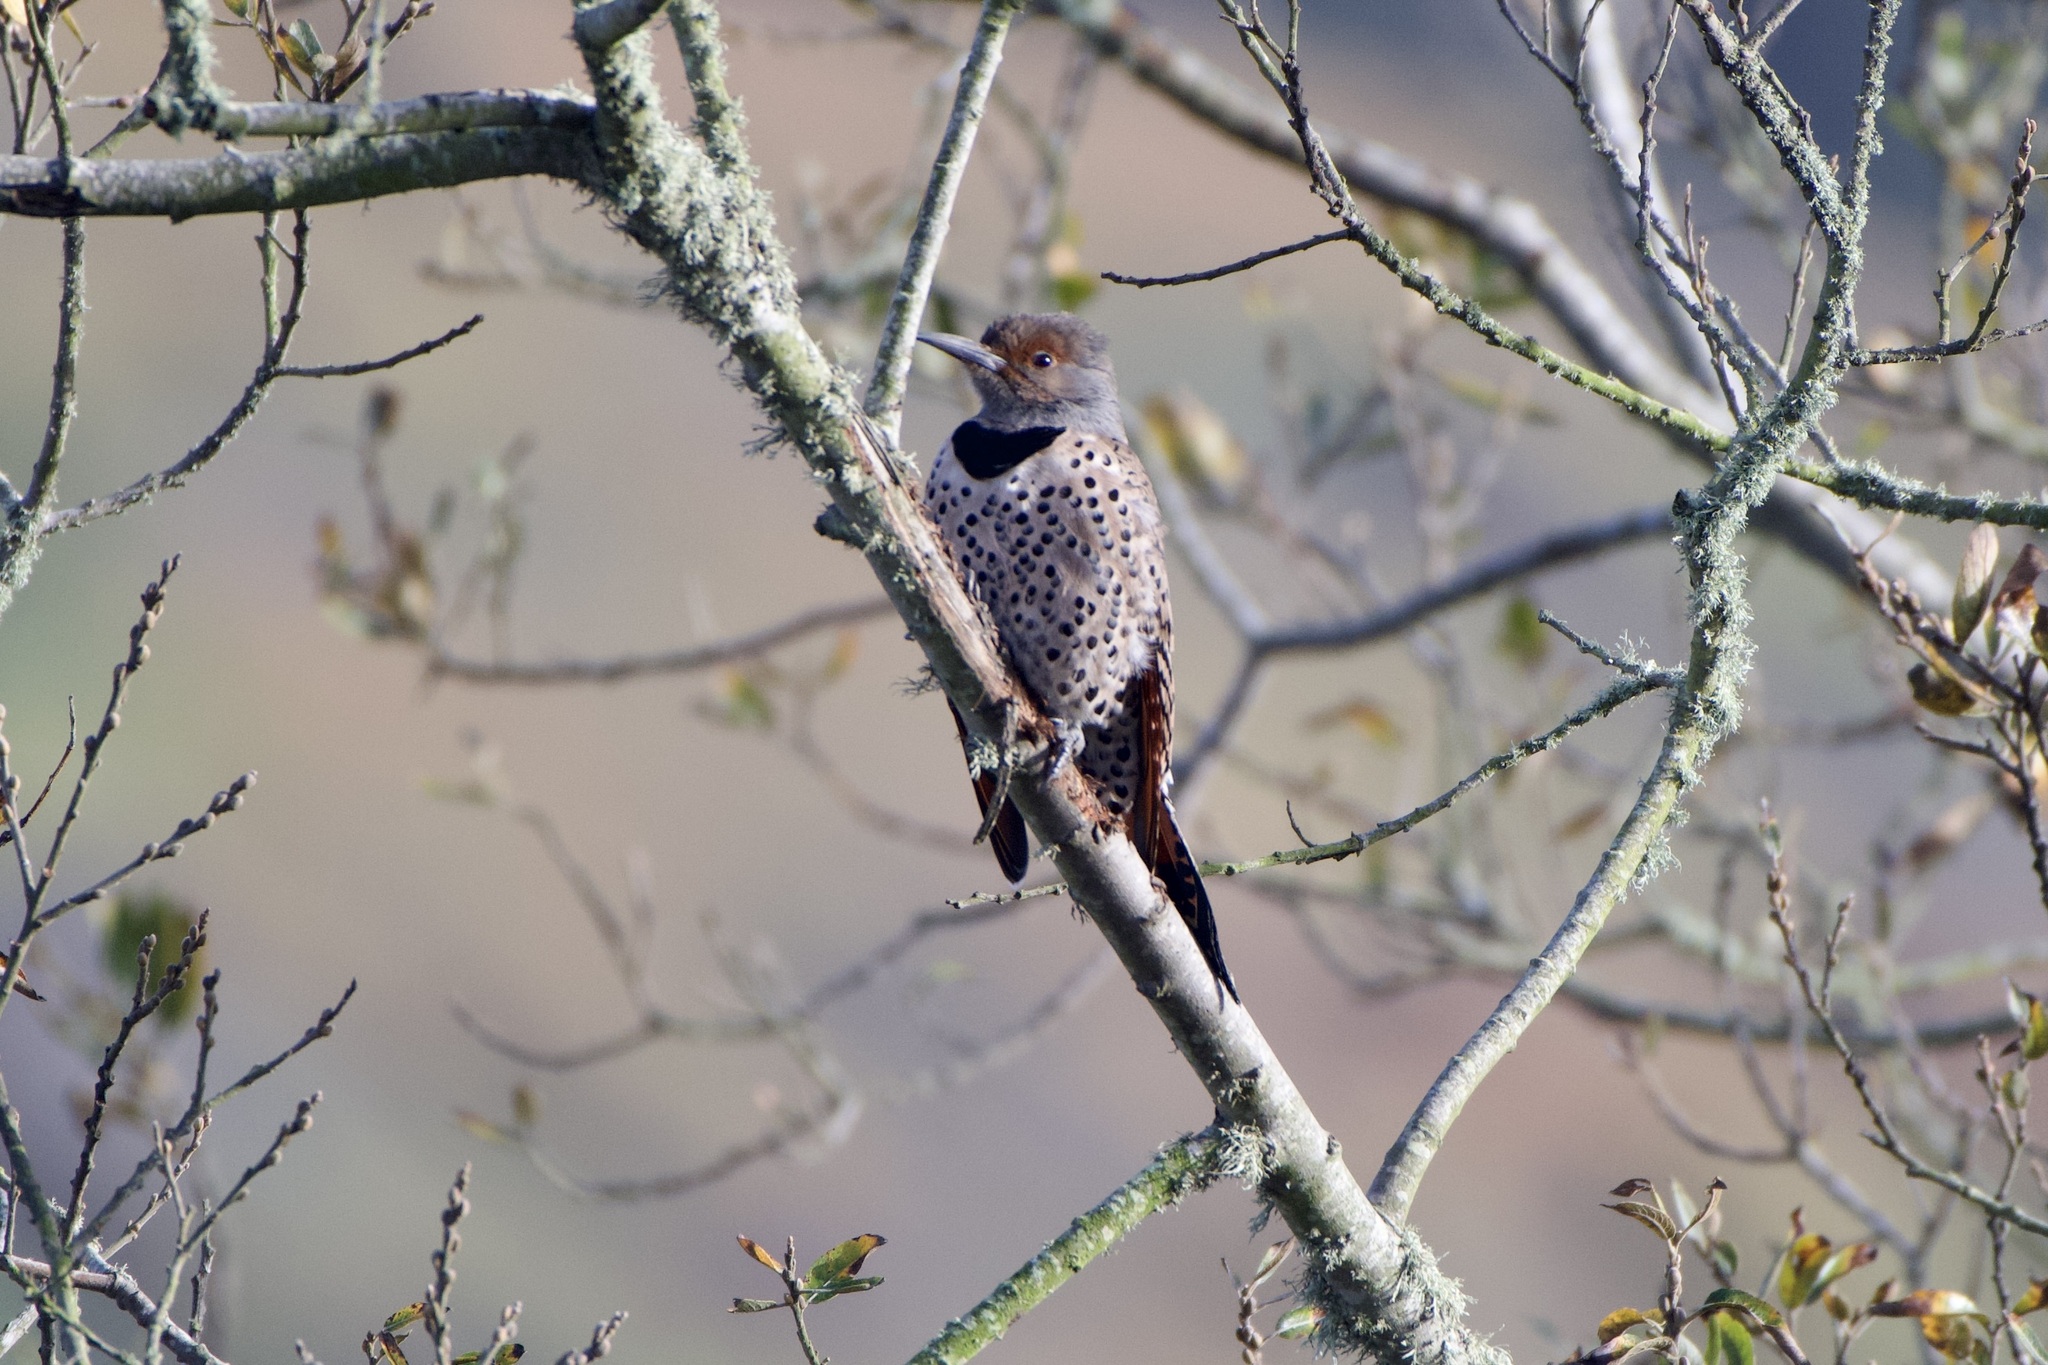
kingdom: Animalia
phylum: Chordata
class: Aves
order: Piciformes
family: Picidae
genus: Colaptes
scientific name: Colaptes auratus
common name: Northern flicker
